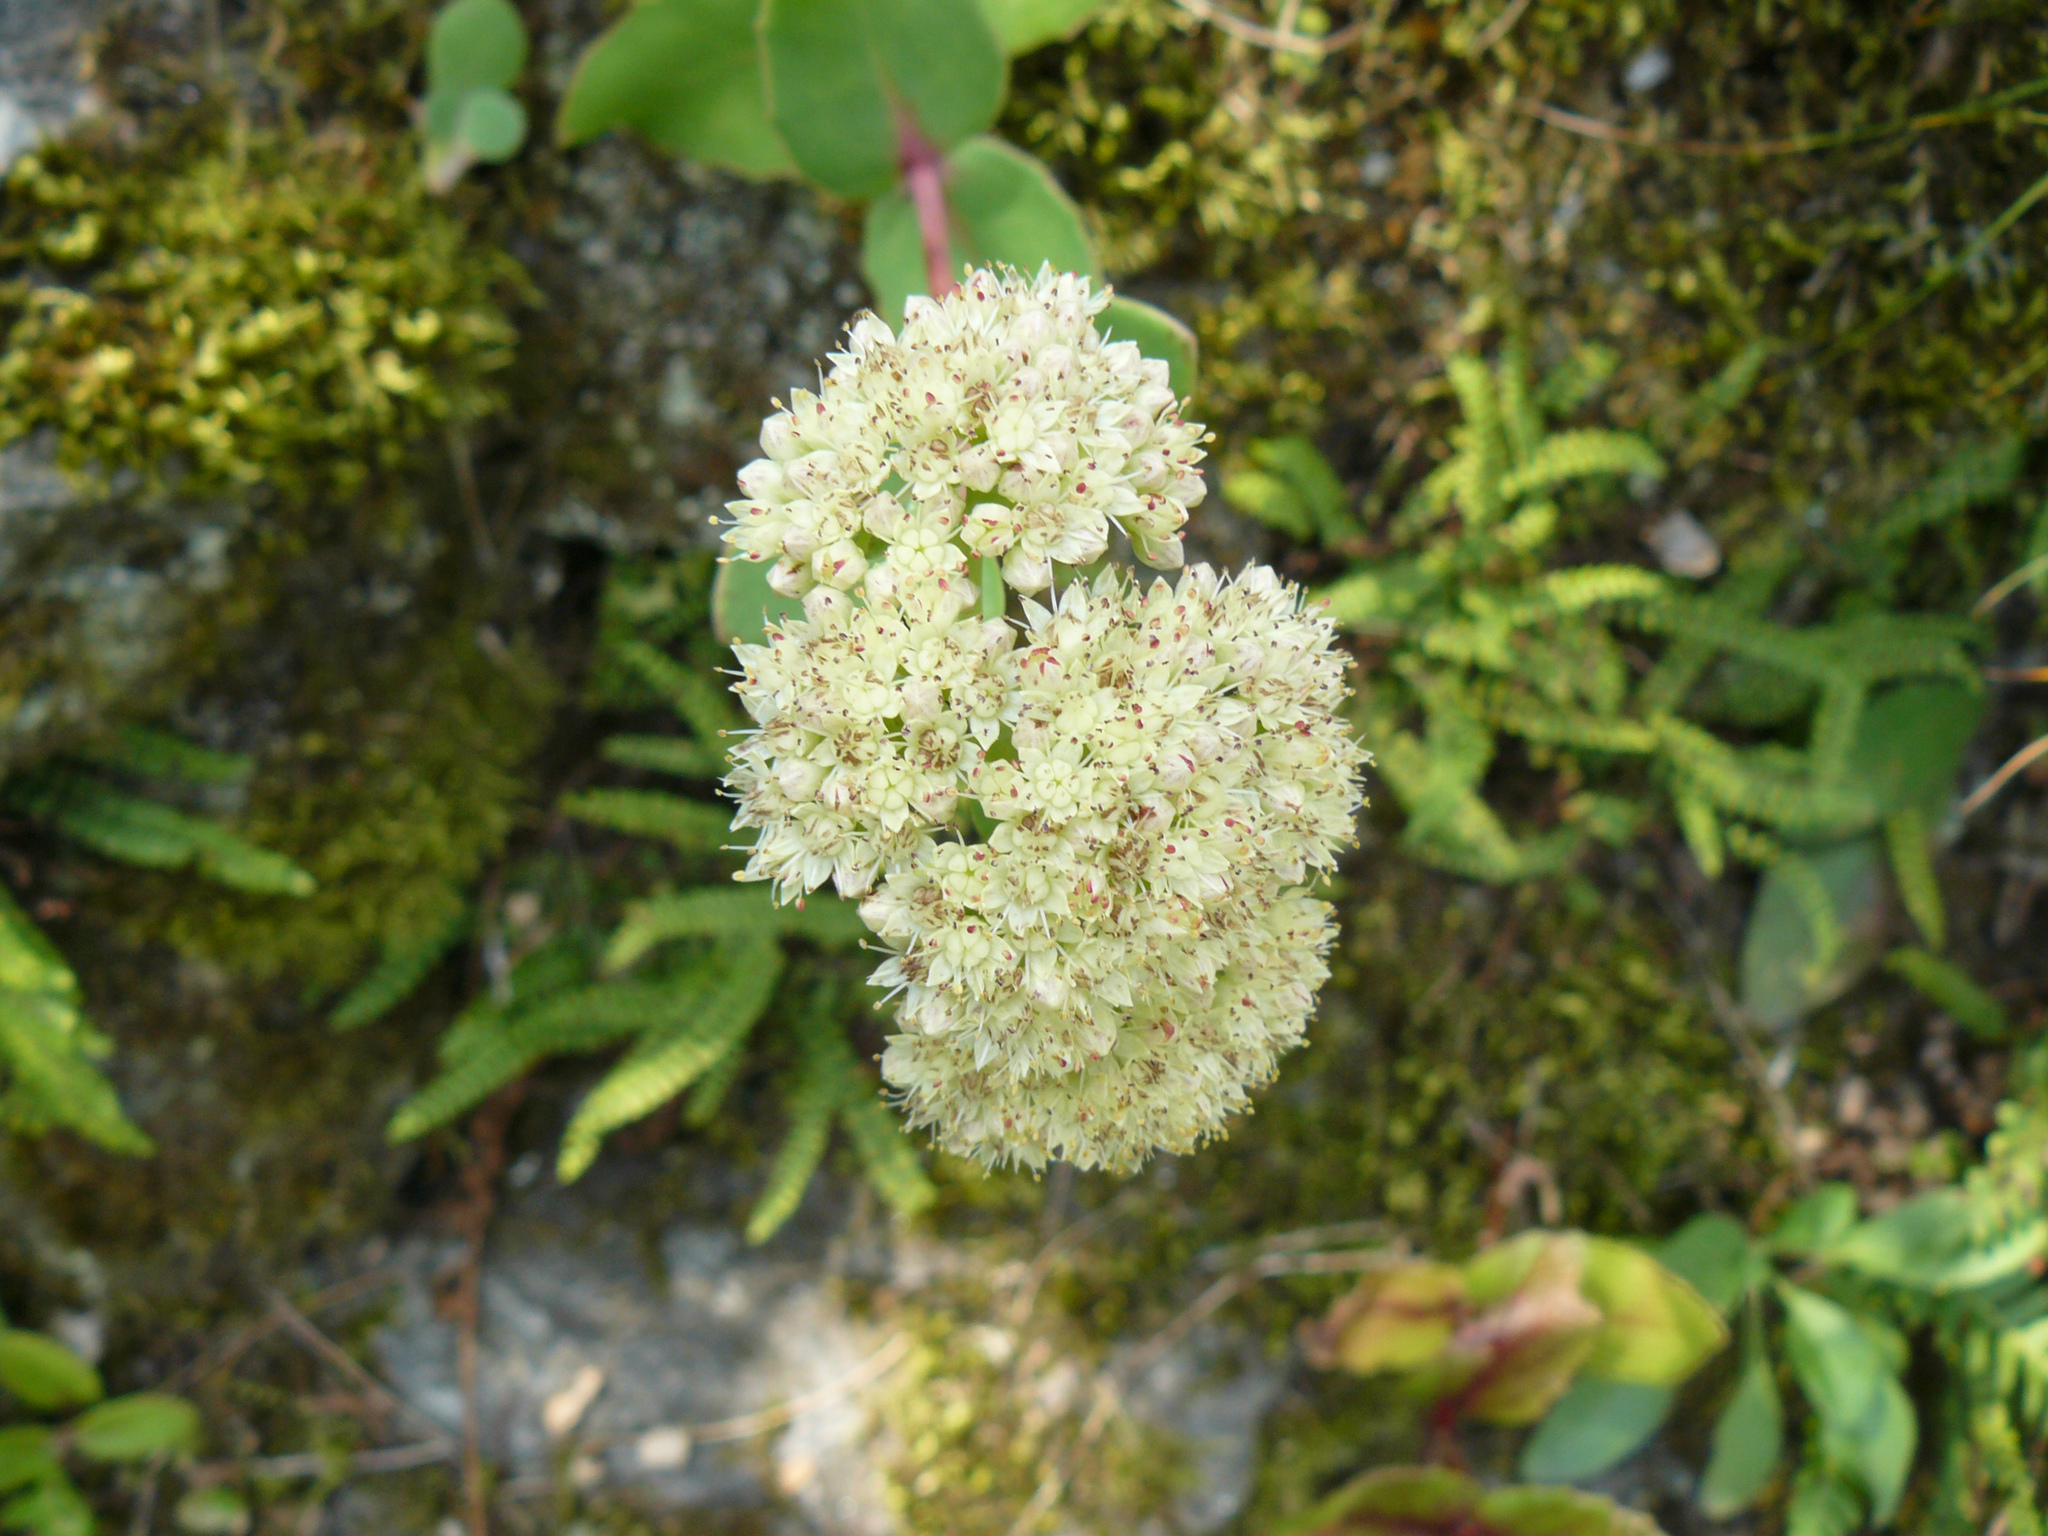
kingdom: Plantae
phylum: Tracheophyta
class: Magnoliopsida
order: Saxifragales
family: Crassulaceae
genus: Hylotelephium
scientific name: Hylotelephium maximum
